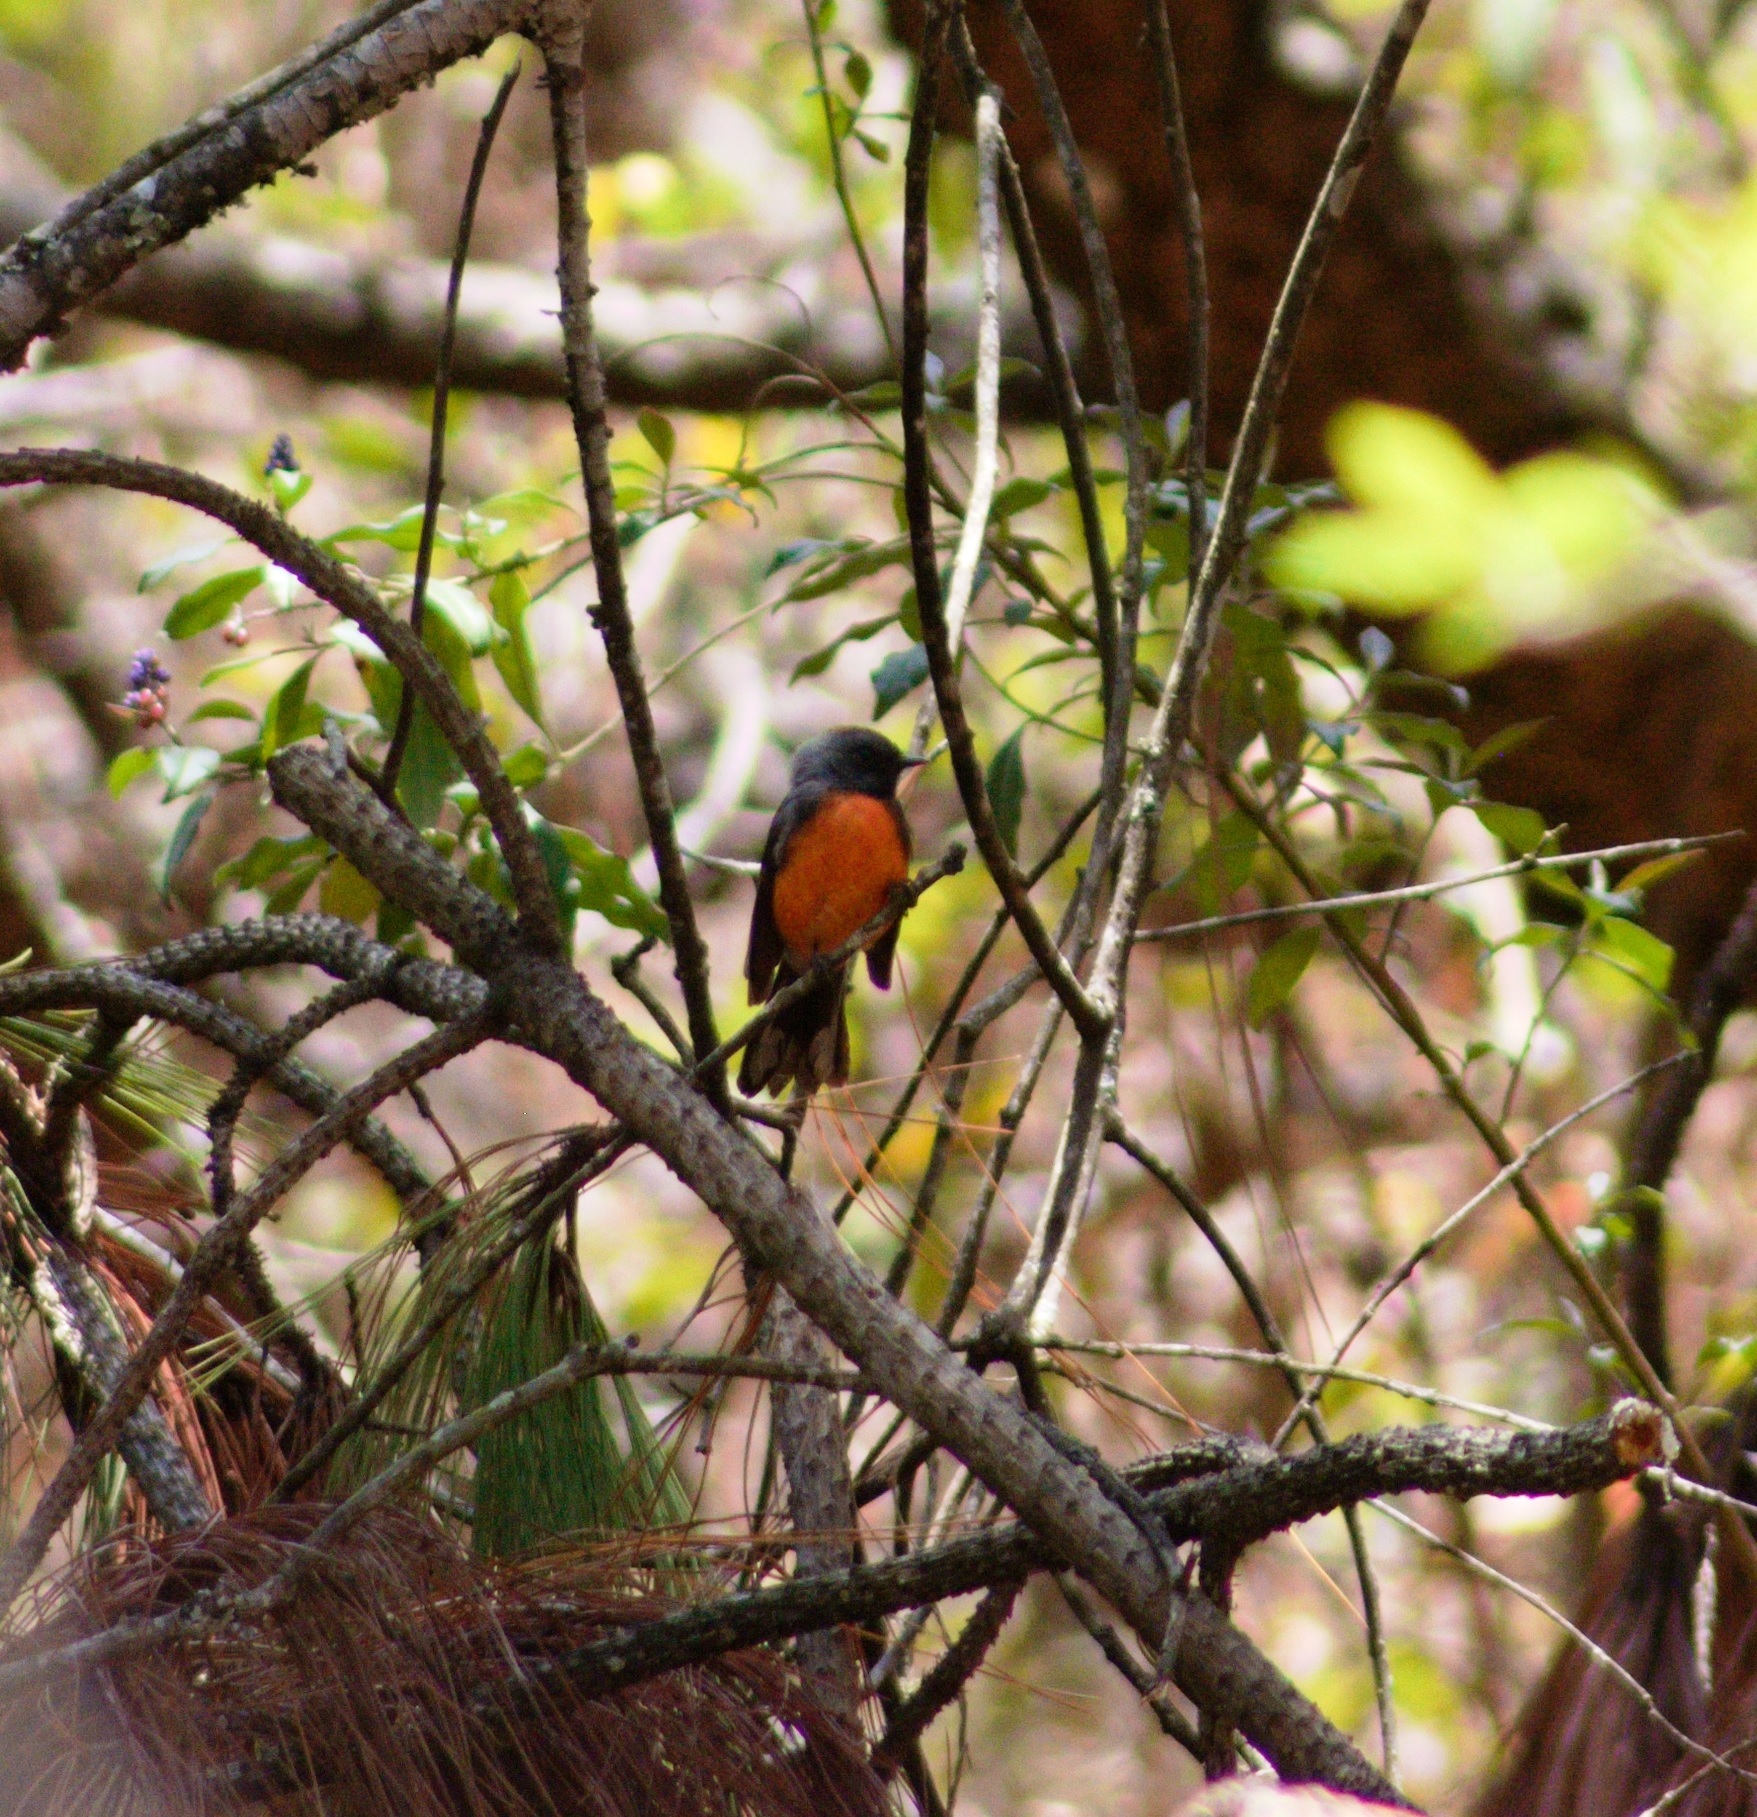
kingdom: Animalia
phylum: Chordata
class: Aves
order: Passeriformes
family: Parulidae
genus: Myioborus
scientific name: Myioborus miniatus
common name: Slate-throated redstart
